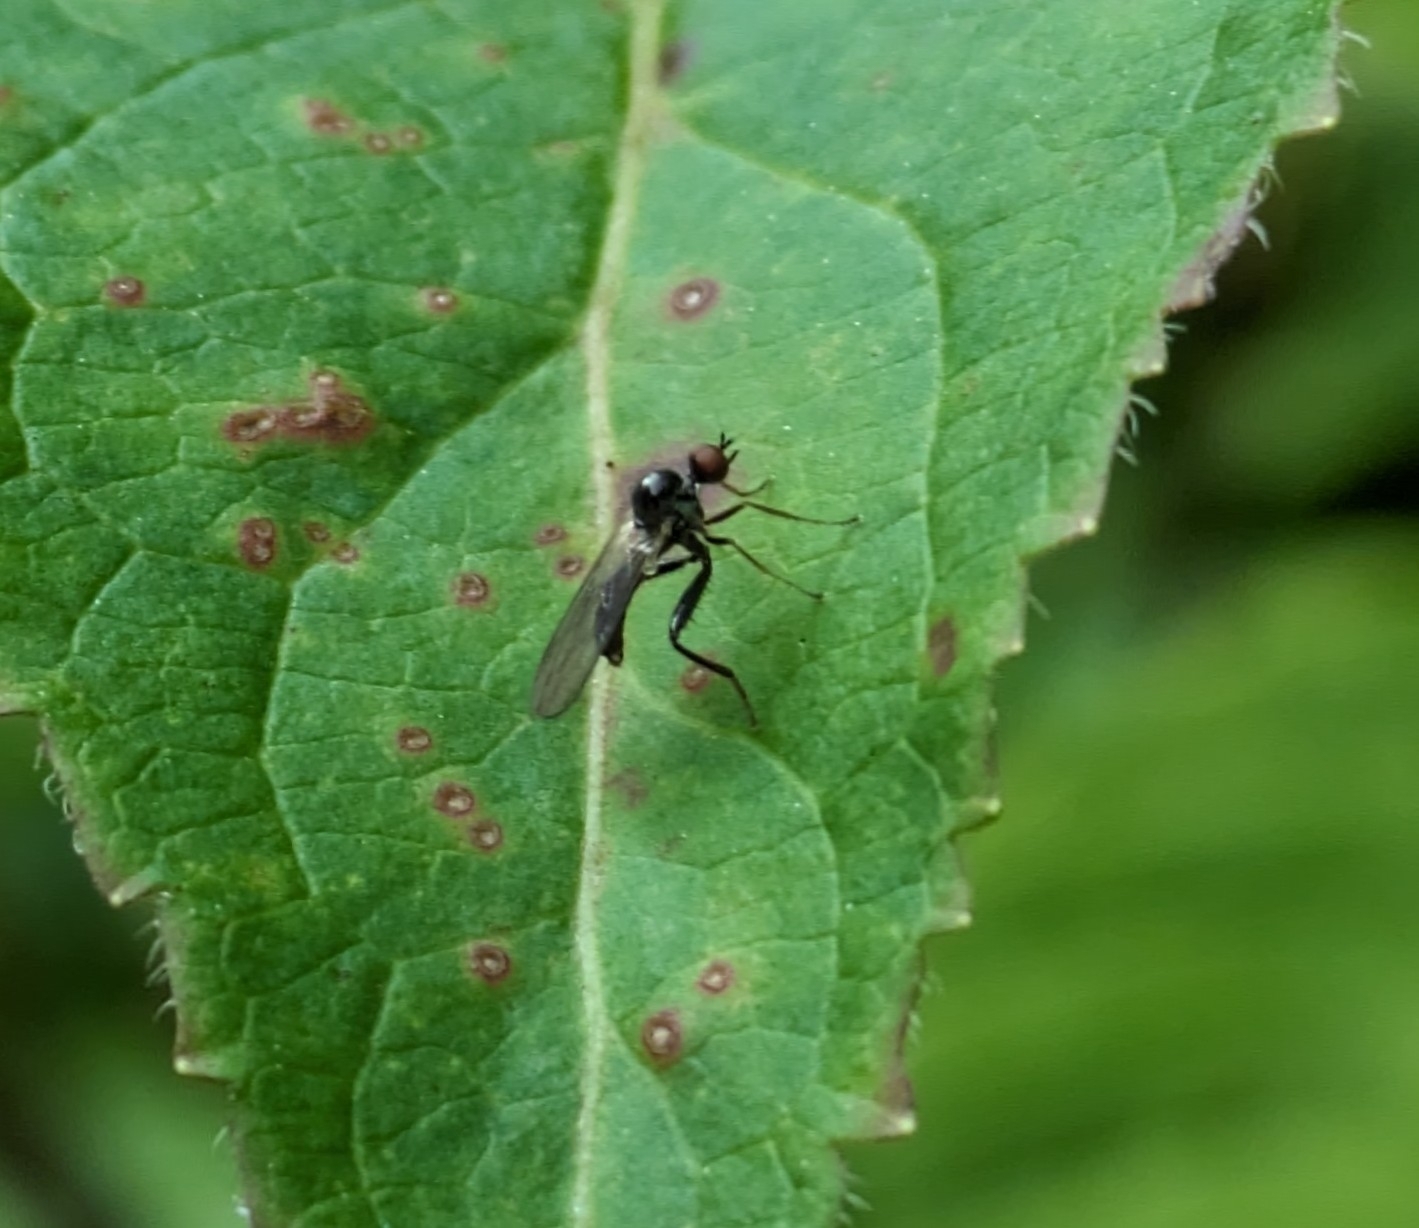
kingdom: Animalia
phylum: Arthropoda
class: Insecta
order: Diptera
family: Hybotidae
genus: Hybos
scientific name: Hybos reversus
